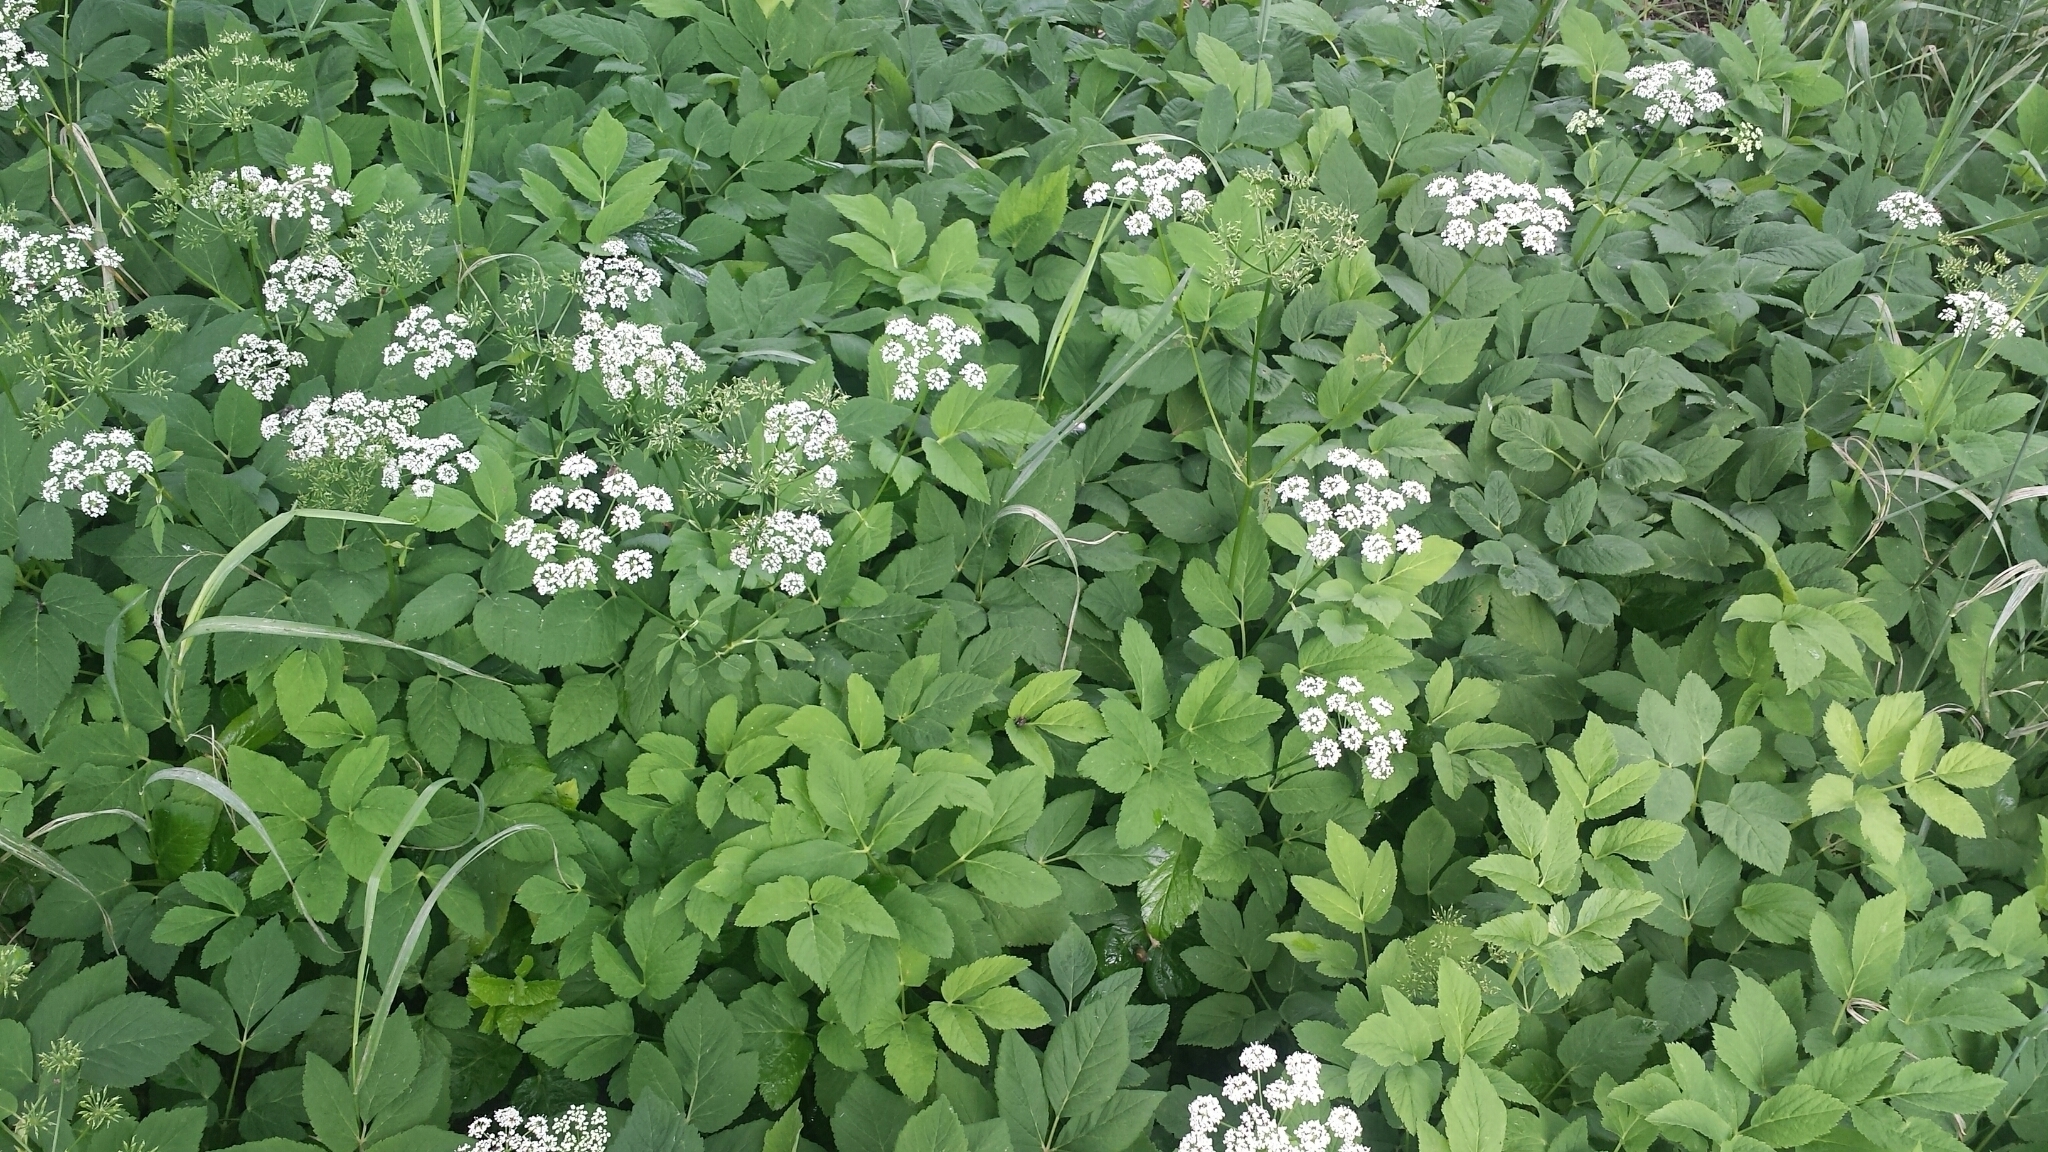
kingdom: Plantae
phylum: Tracheophyta
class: Magnoliopsida
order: Apiales
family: Apiaceae
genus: Aegopodium
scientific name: Aegopodium podagraria
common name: Ground-elder
